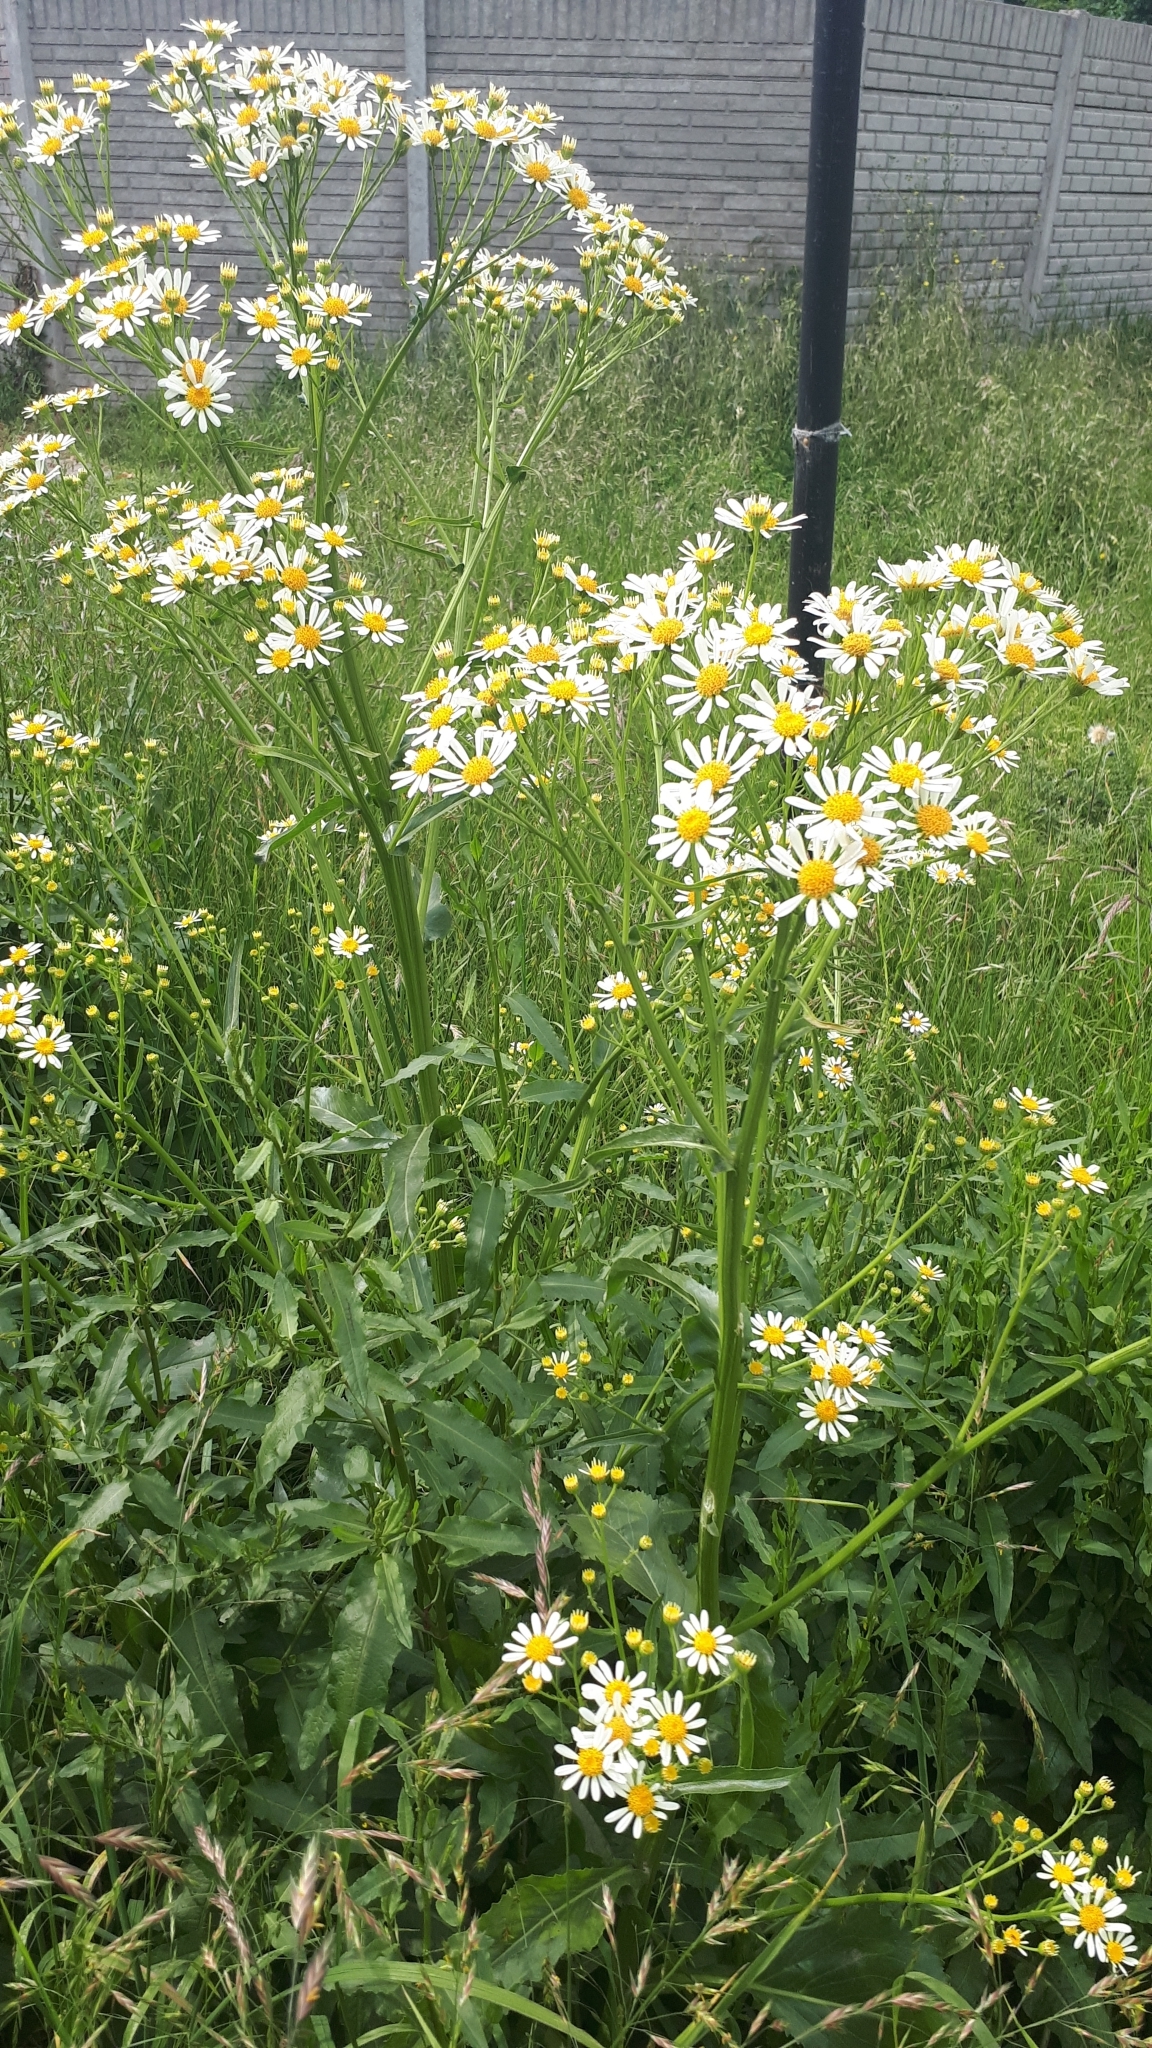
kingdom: Plantae
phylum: Tracheophyta
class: Magnoliopsida
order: Asterales
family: Asteraceae
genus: Senecio
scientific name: Senecio bonariensis
